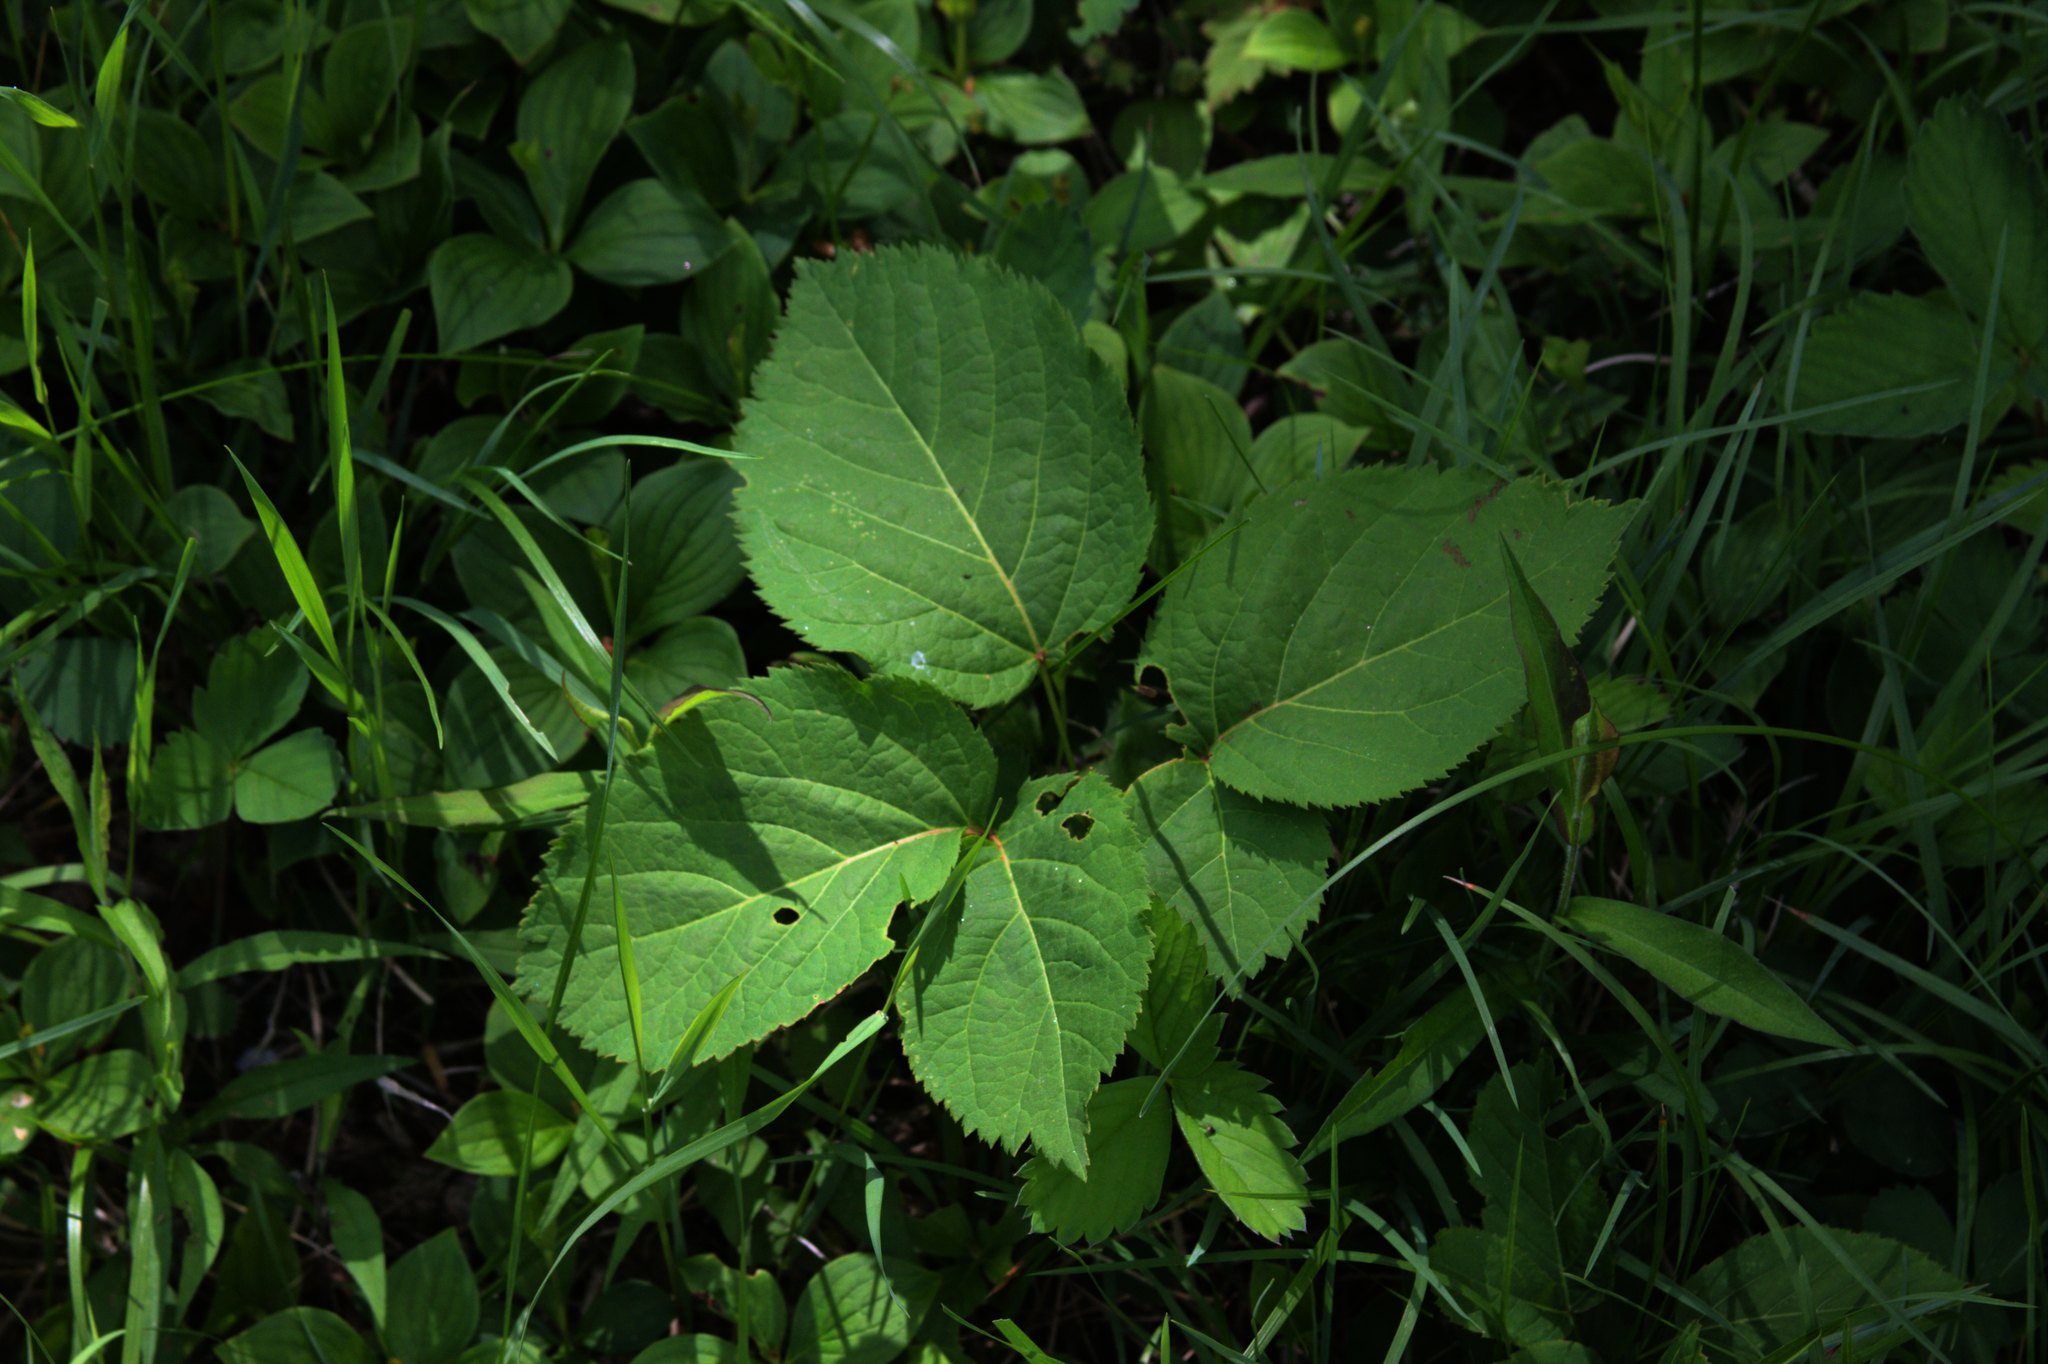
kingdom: Plantae
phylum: Tracheophyta
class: Magnoliopsida
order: Apiales
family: Araliaceae
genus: Aralia
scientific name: Aralia nudicaulis
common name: Wild sarsaparilla
